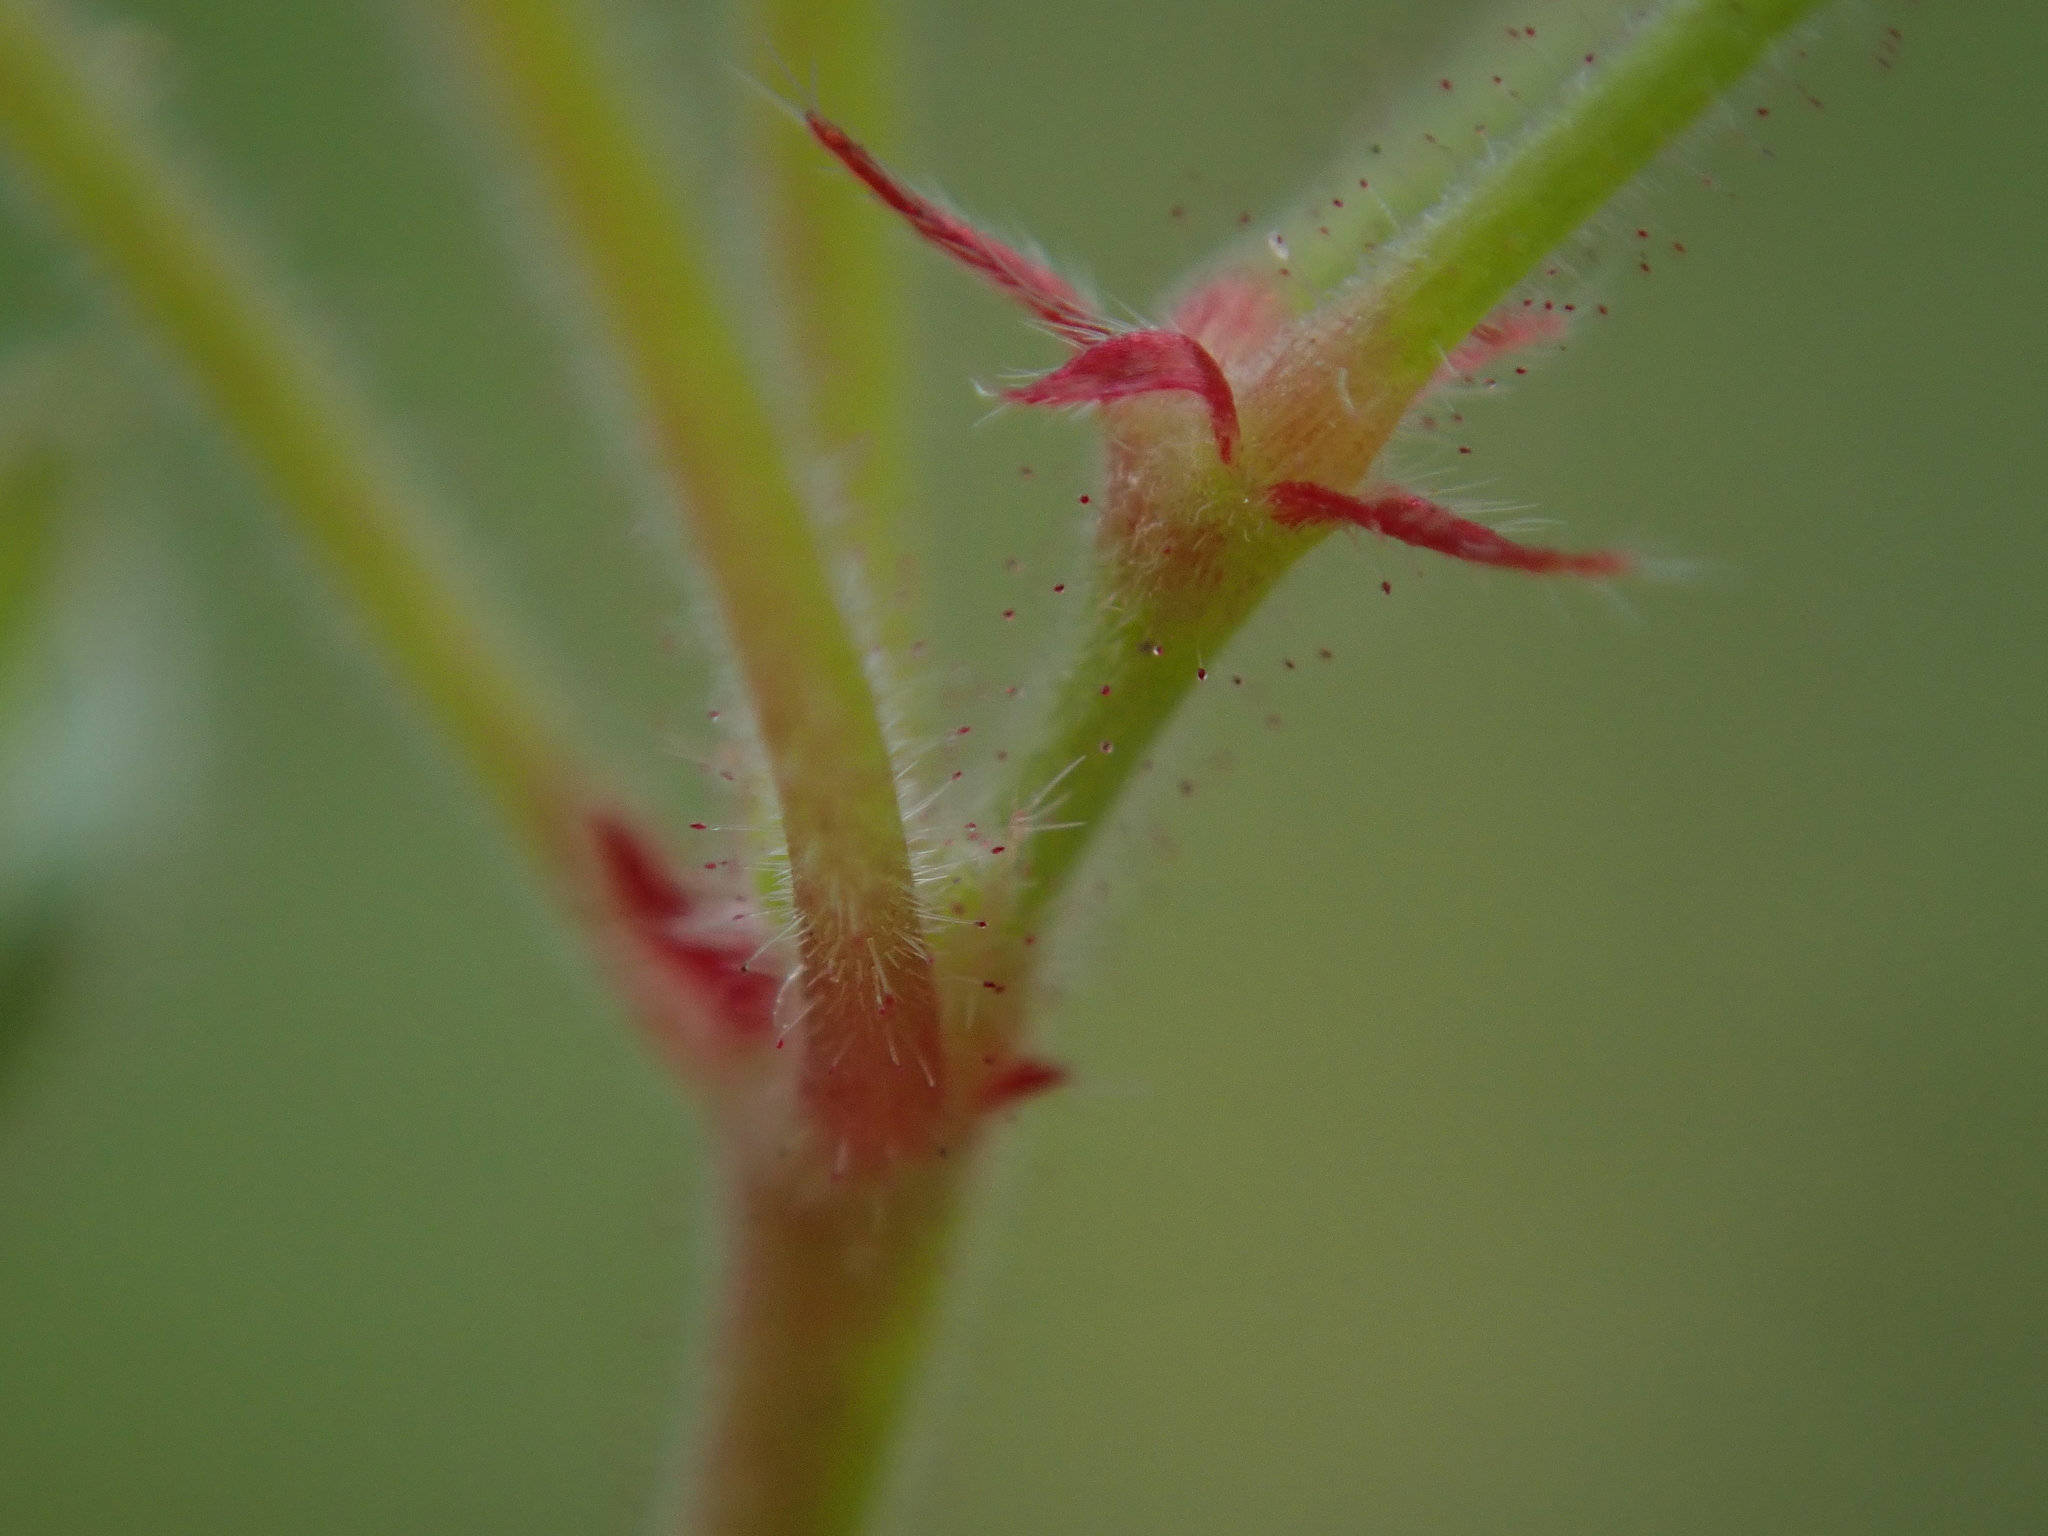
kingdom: Plantae
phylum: Tracheophyta
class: Magnoliopsida
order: Geraniales
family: Geraniaceae
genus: Geranium
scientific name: Geranium rotundifolium
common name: Round-leaved crane's-bill
